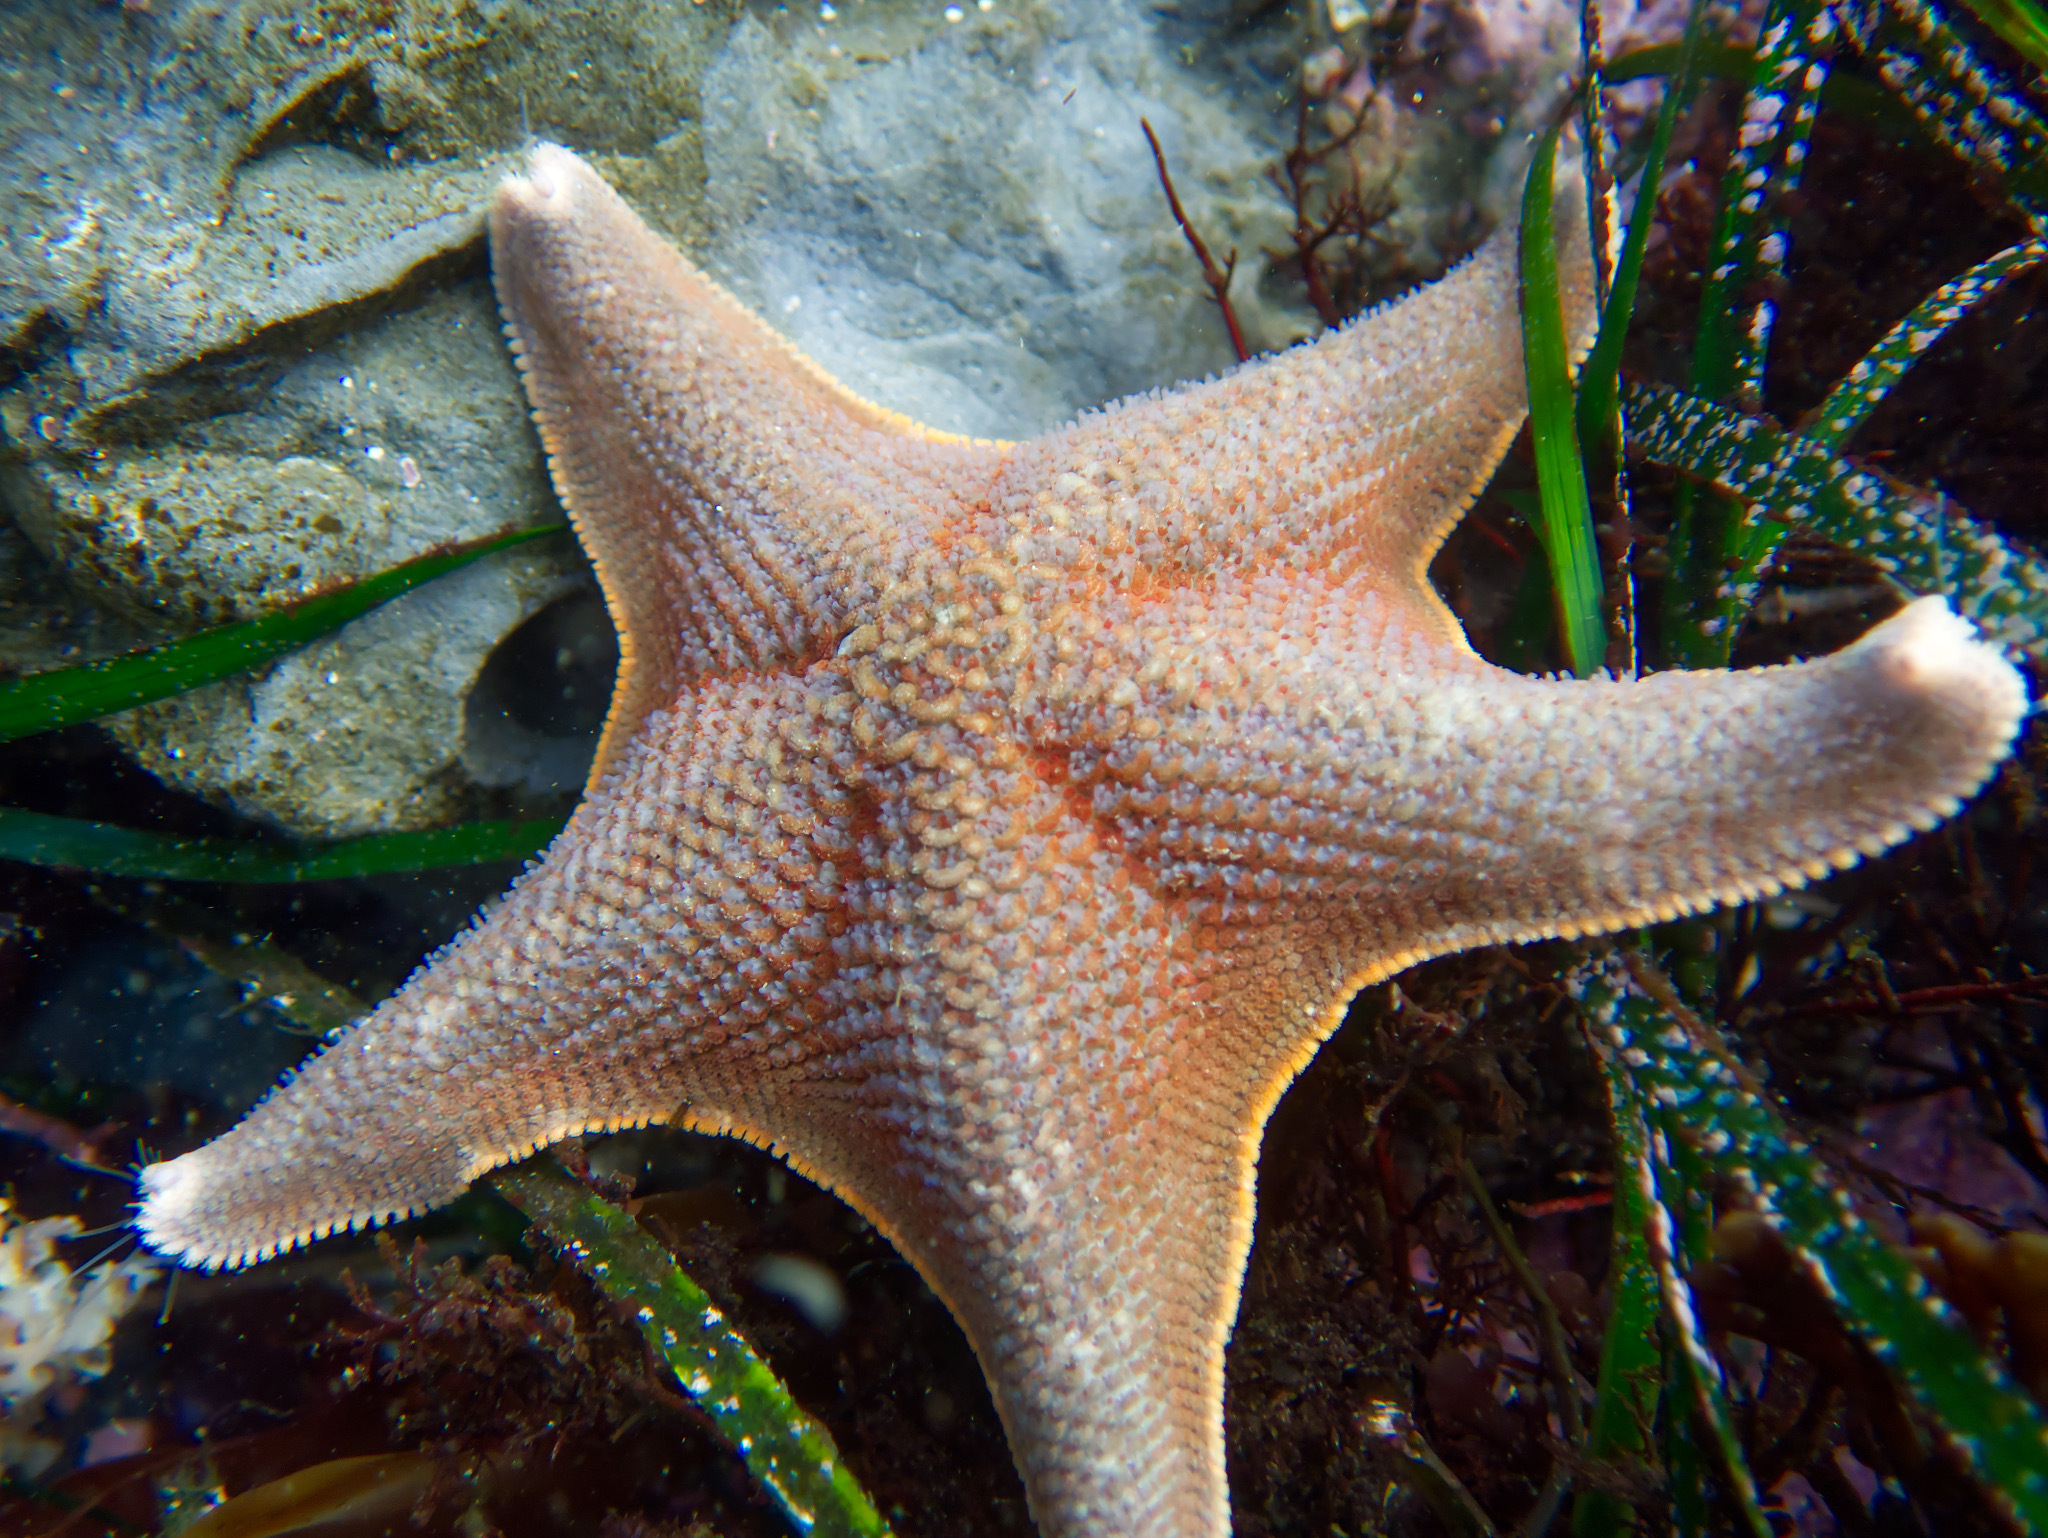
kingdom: Animalia
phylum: Echinodermata
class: Asteroidea
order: Valvatida
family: Asterinidae
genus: Patiria
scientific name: Patiria miniata
